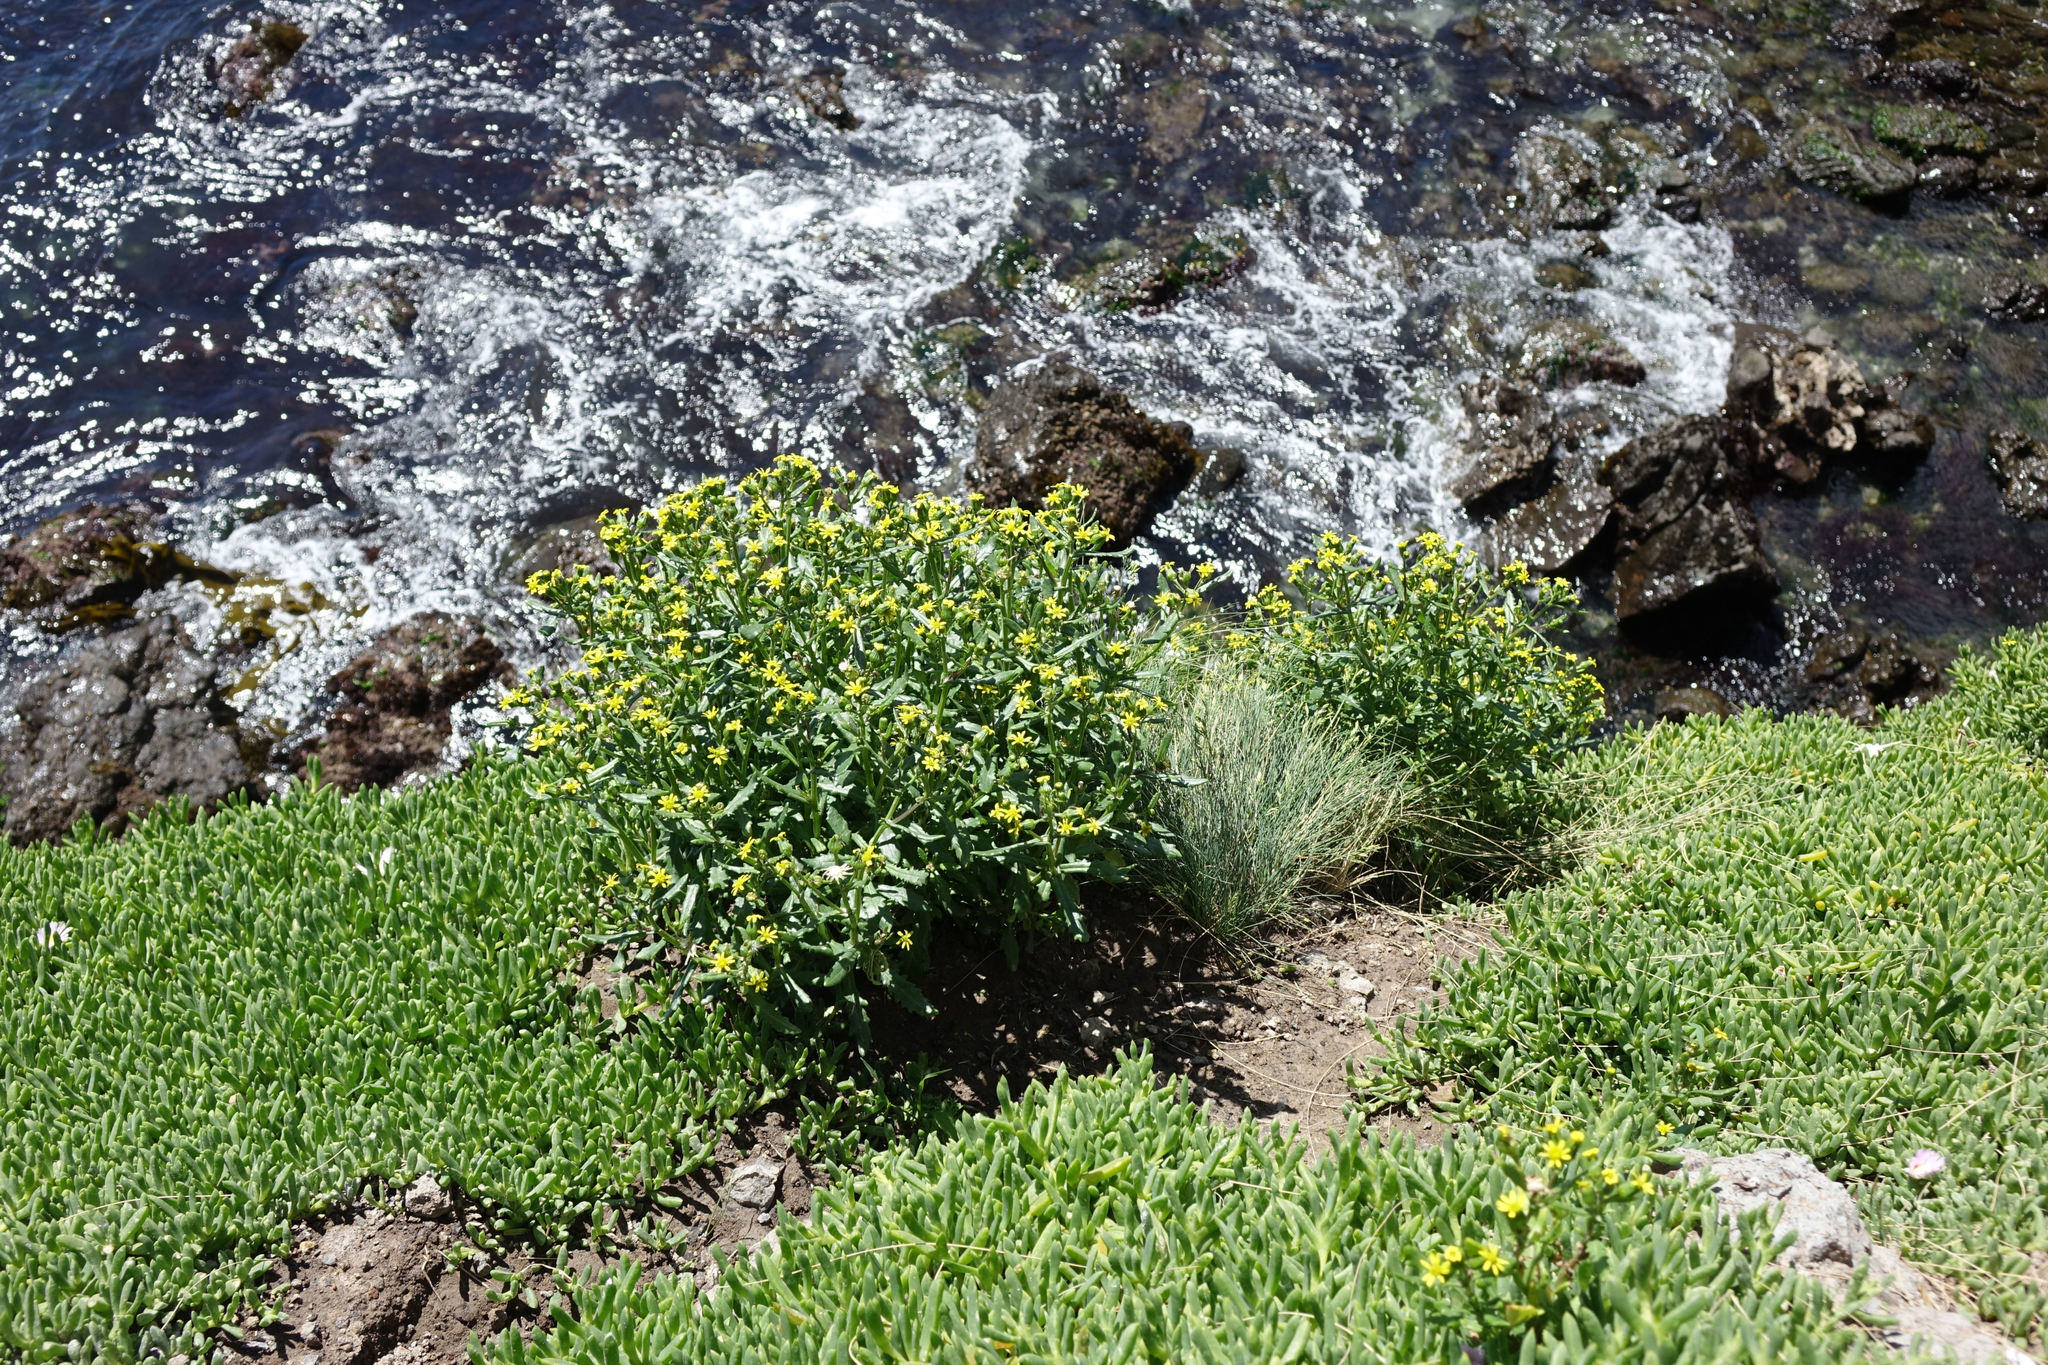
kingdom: Plantae
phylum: Tracheophyta
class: Magnoliopsida
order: Asterales
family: Asteraceae
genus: Senecio
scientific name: Senecio matatini
